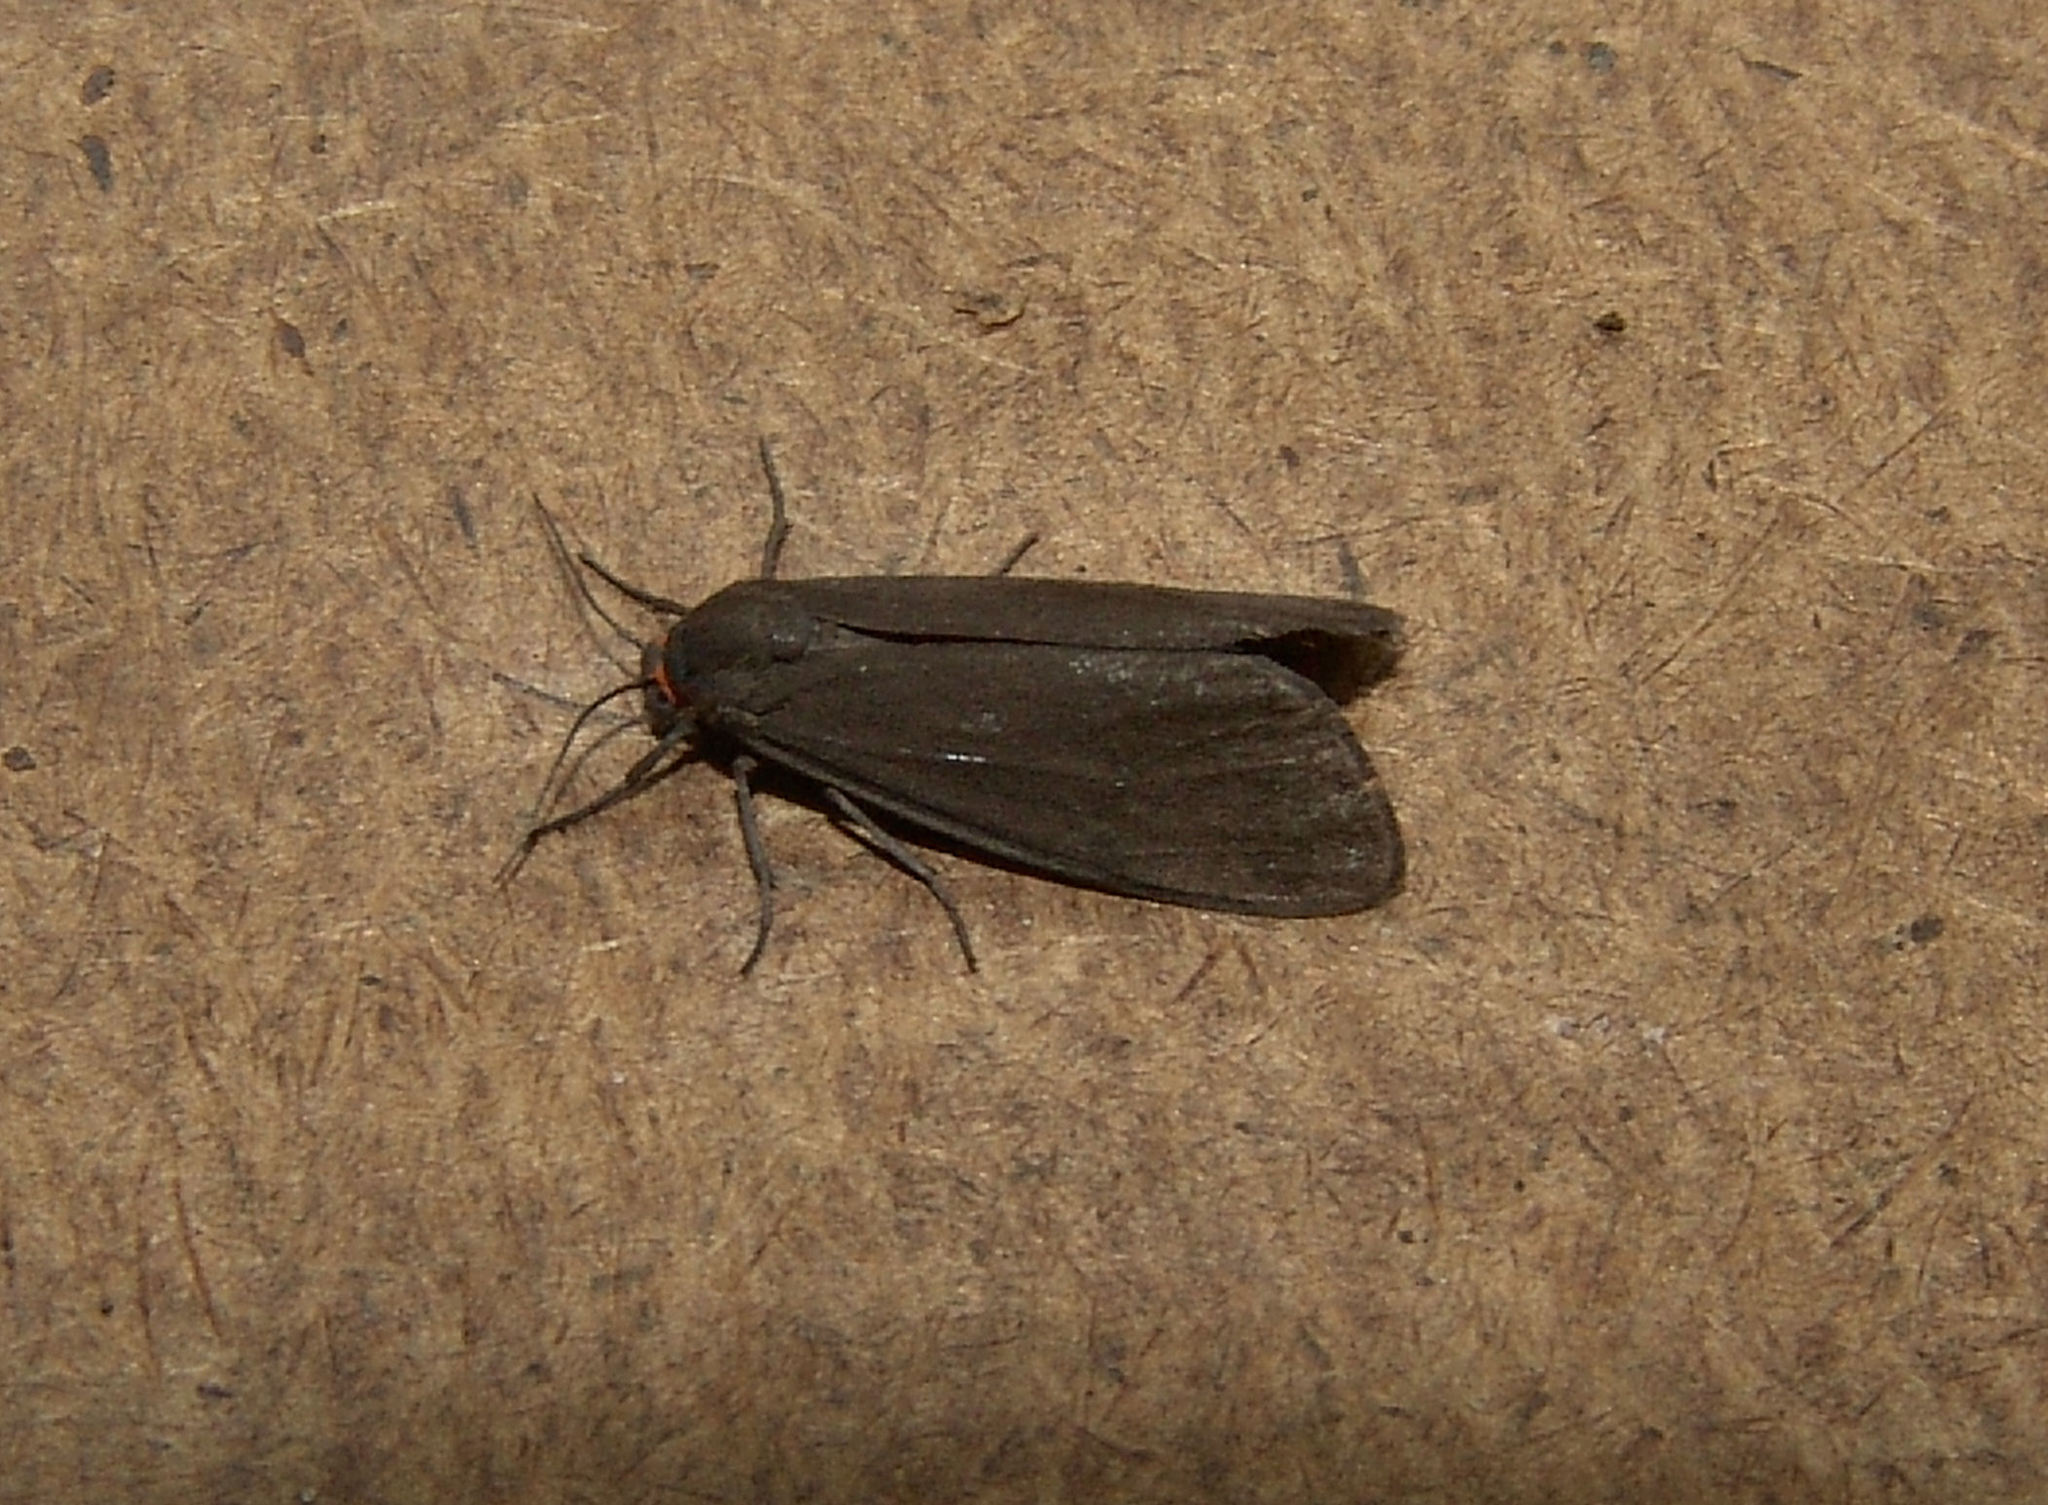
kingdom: Animalia
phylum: Arthropoda
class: Insecta
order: Lepidoptera
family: Erebidae
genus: Virbia
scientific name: Virbia laeta
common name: Joyful holomelina moth
